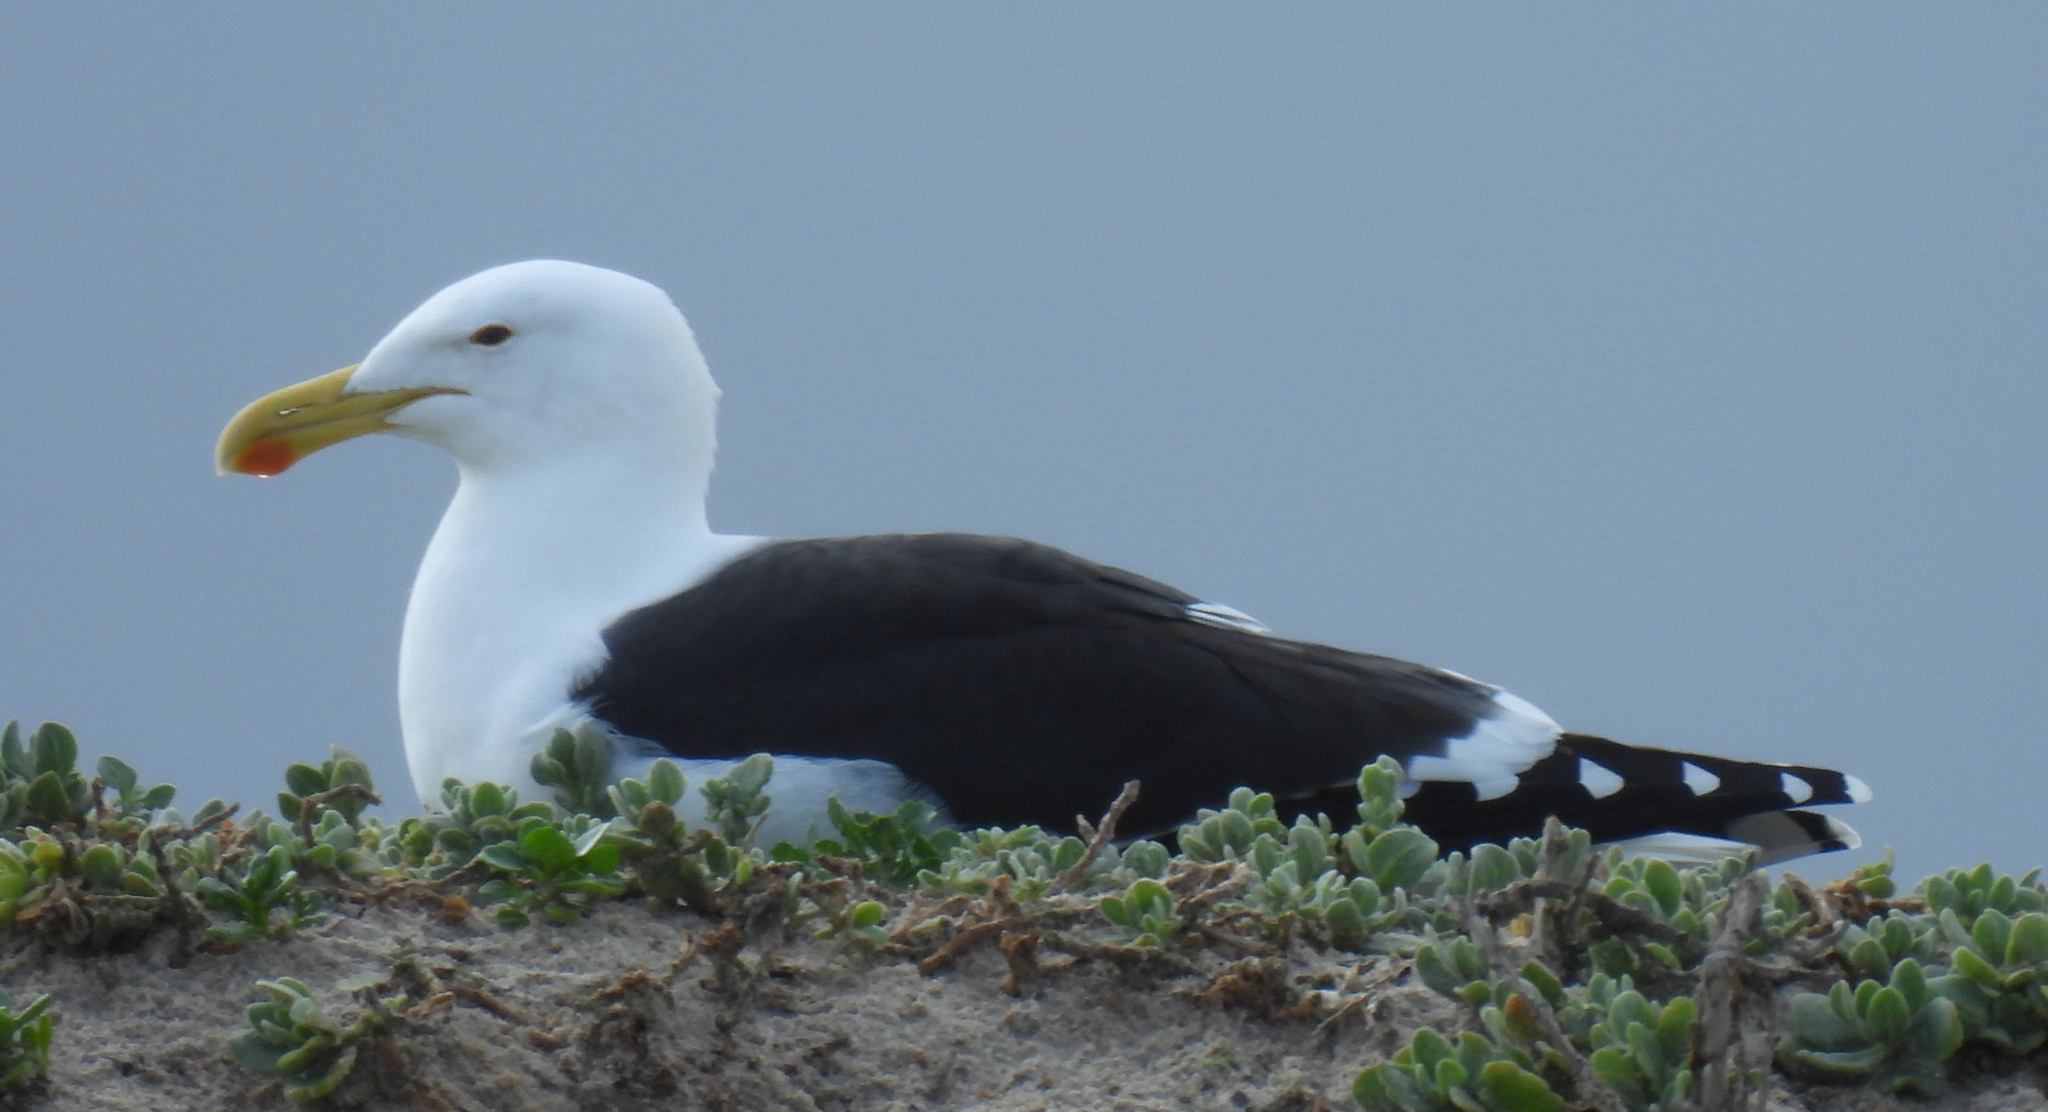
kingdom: Animalia
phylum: Chordata
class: Aves
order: Charadriiformes
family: Laridae
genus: Larus
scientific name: Larus dominicanus
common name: Kelp gull
